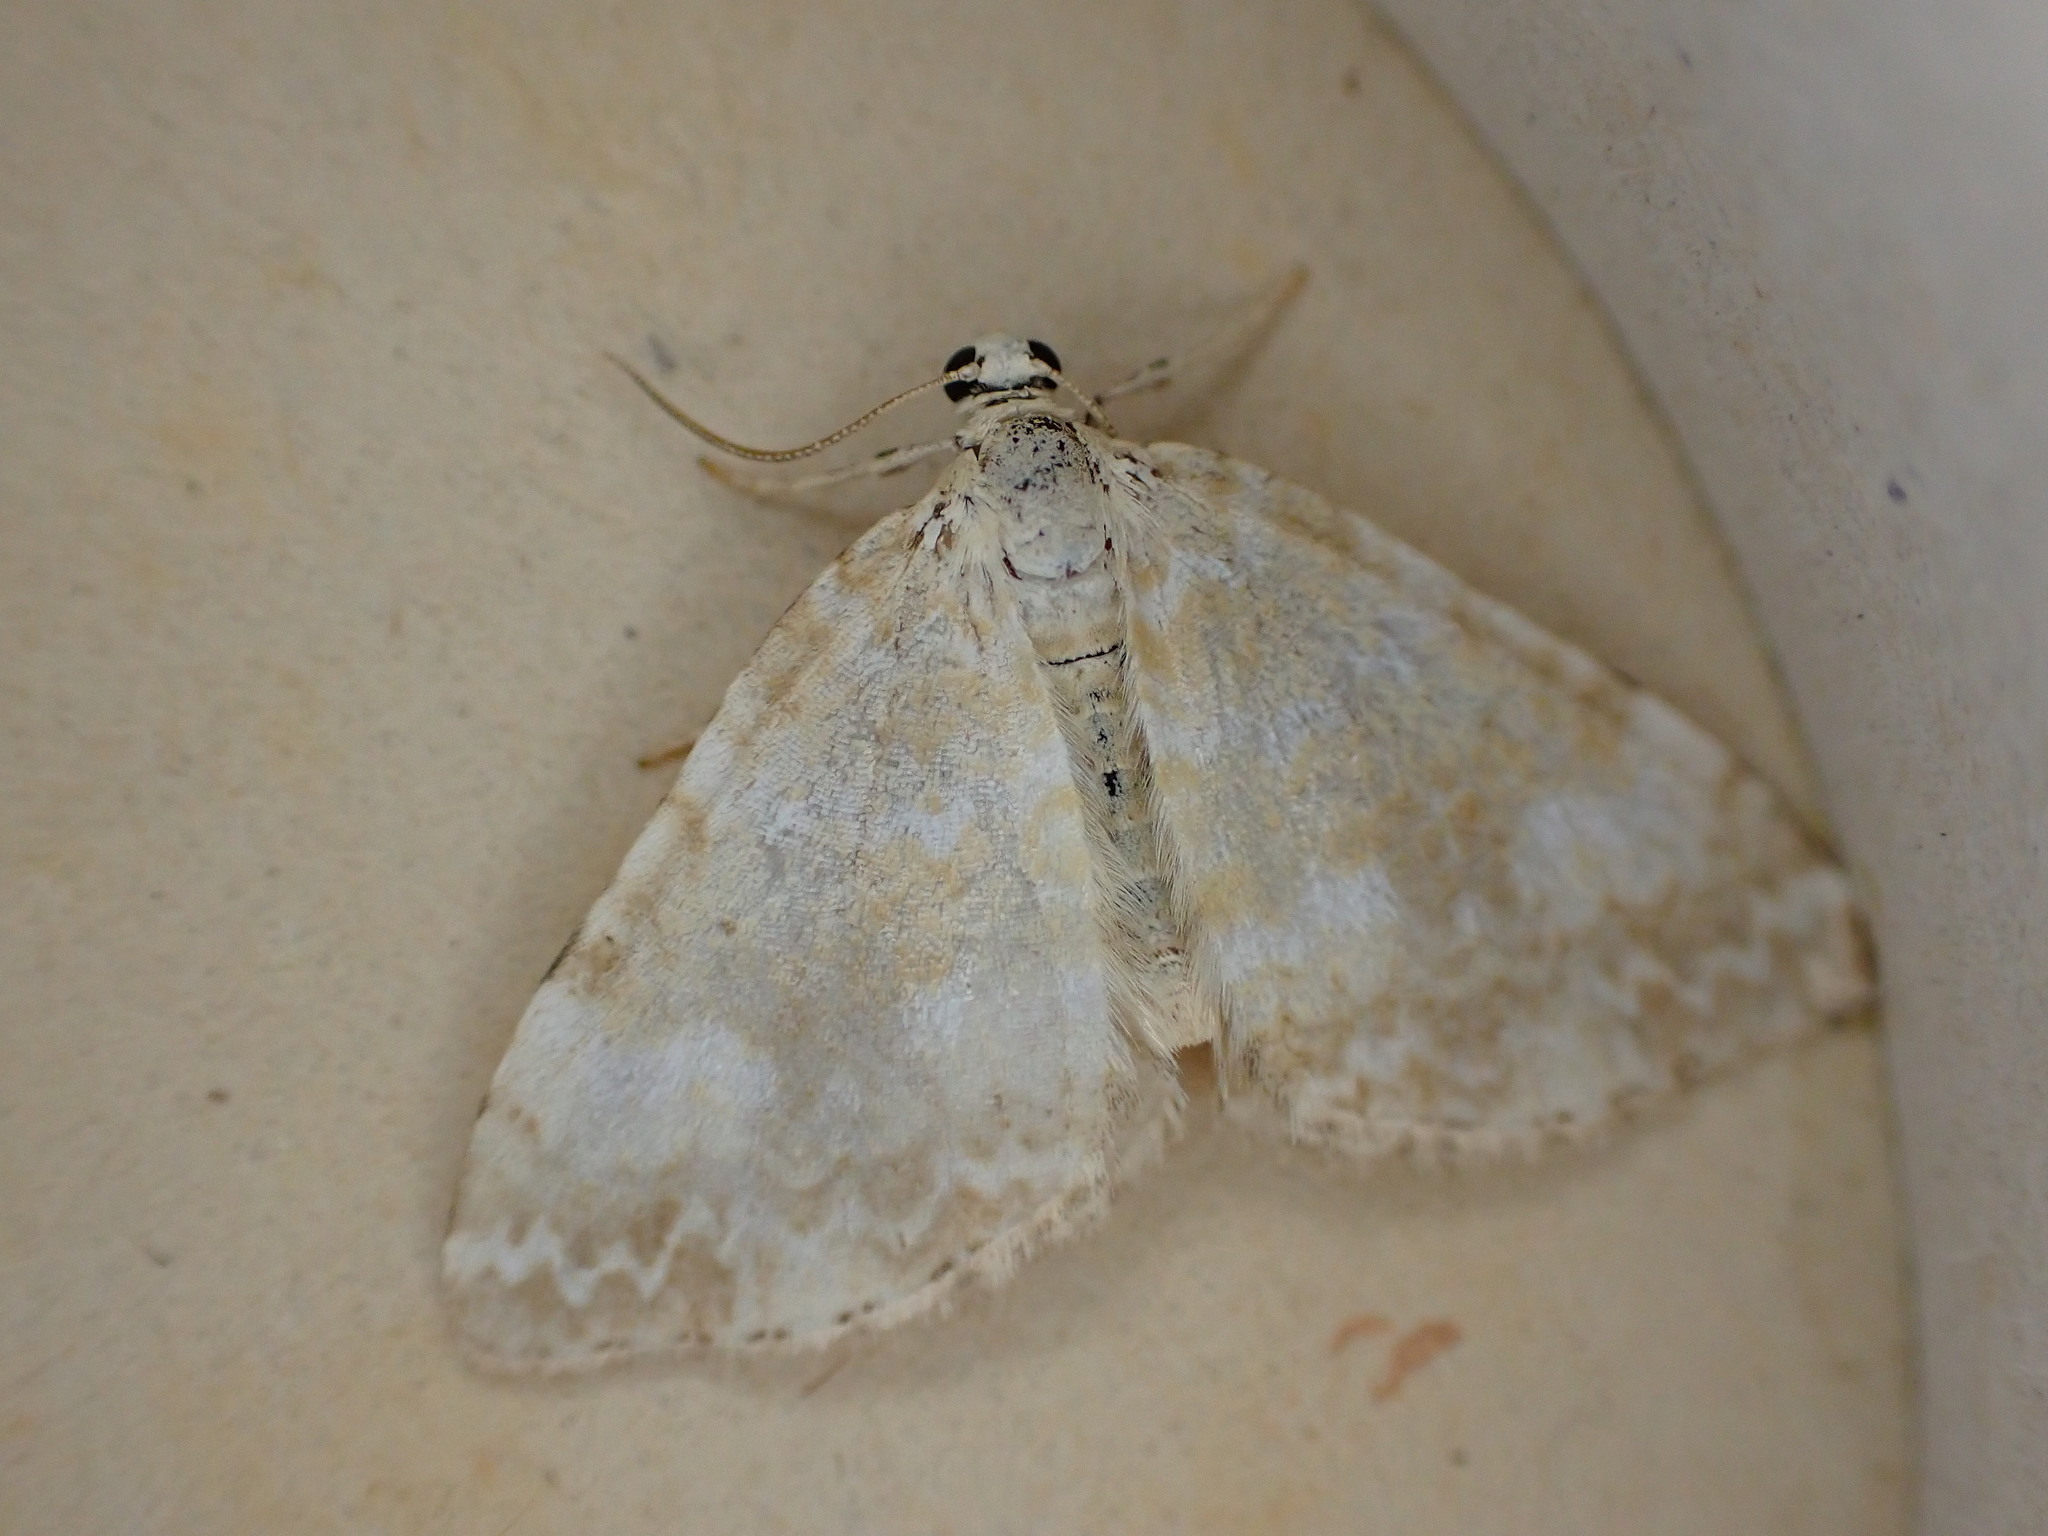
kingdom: Animalia
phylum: Arthropoda
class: Insecta
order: Lepidoptera
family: Geometridae
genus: Perizoma
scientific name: Perizoma flavofasciata
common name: Sandy carpet
